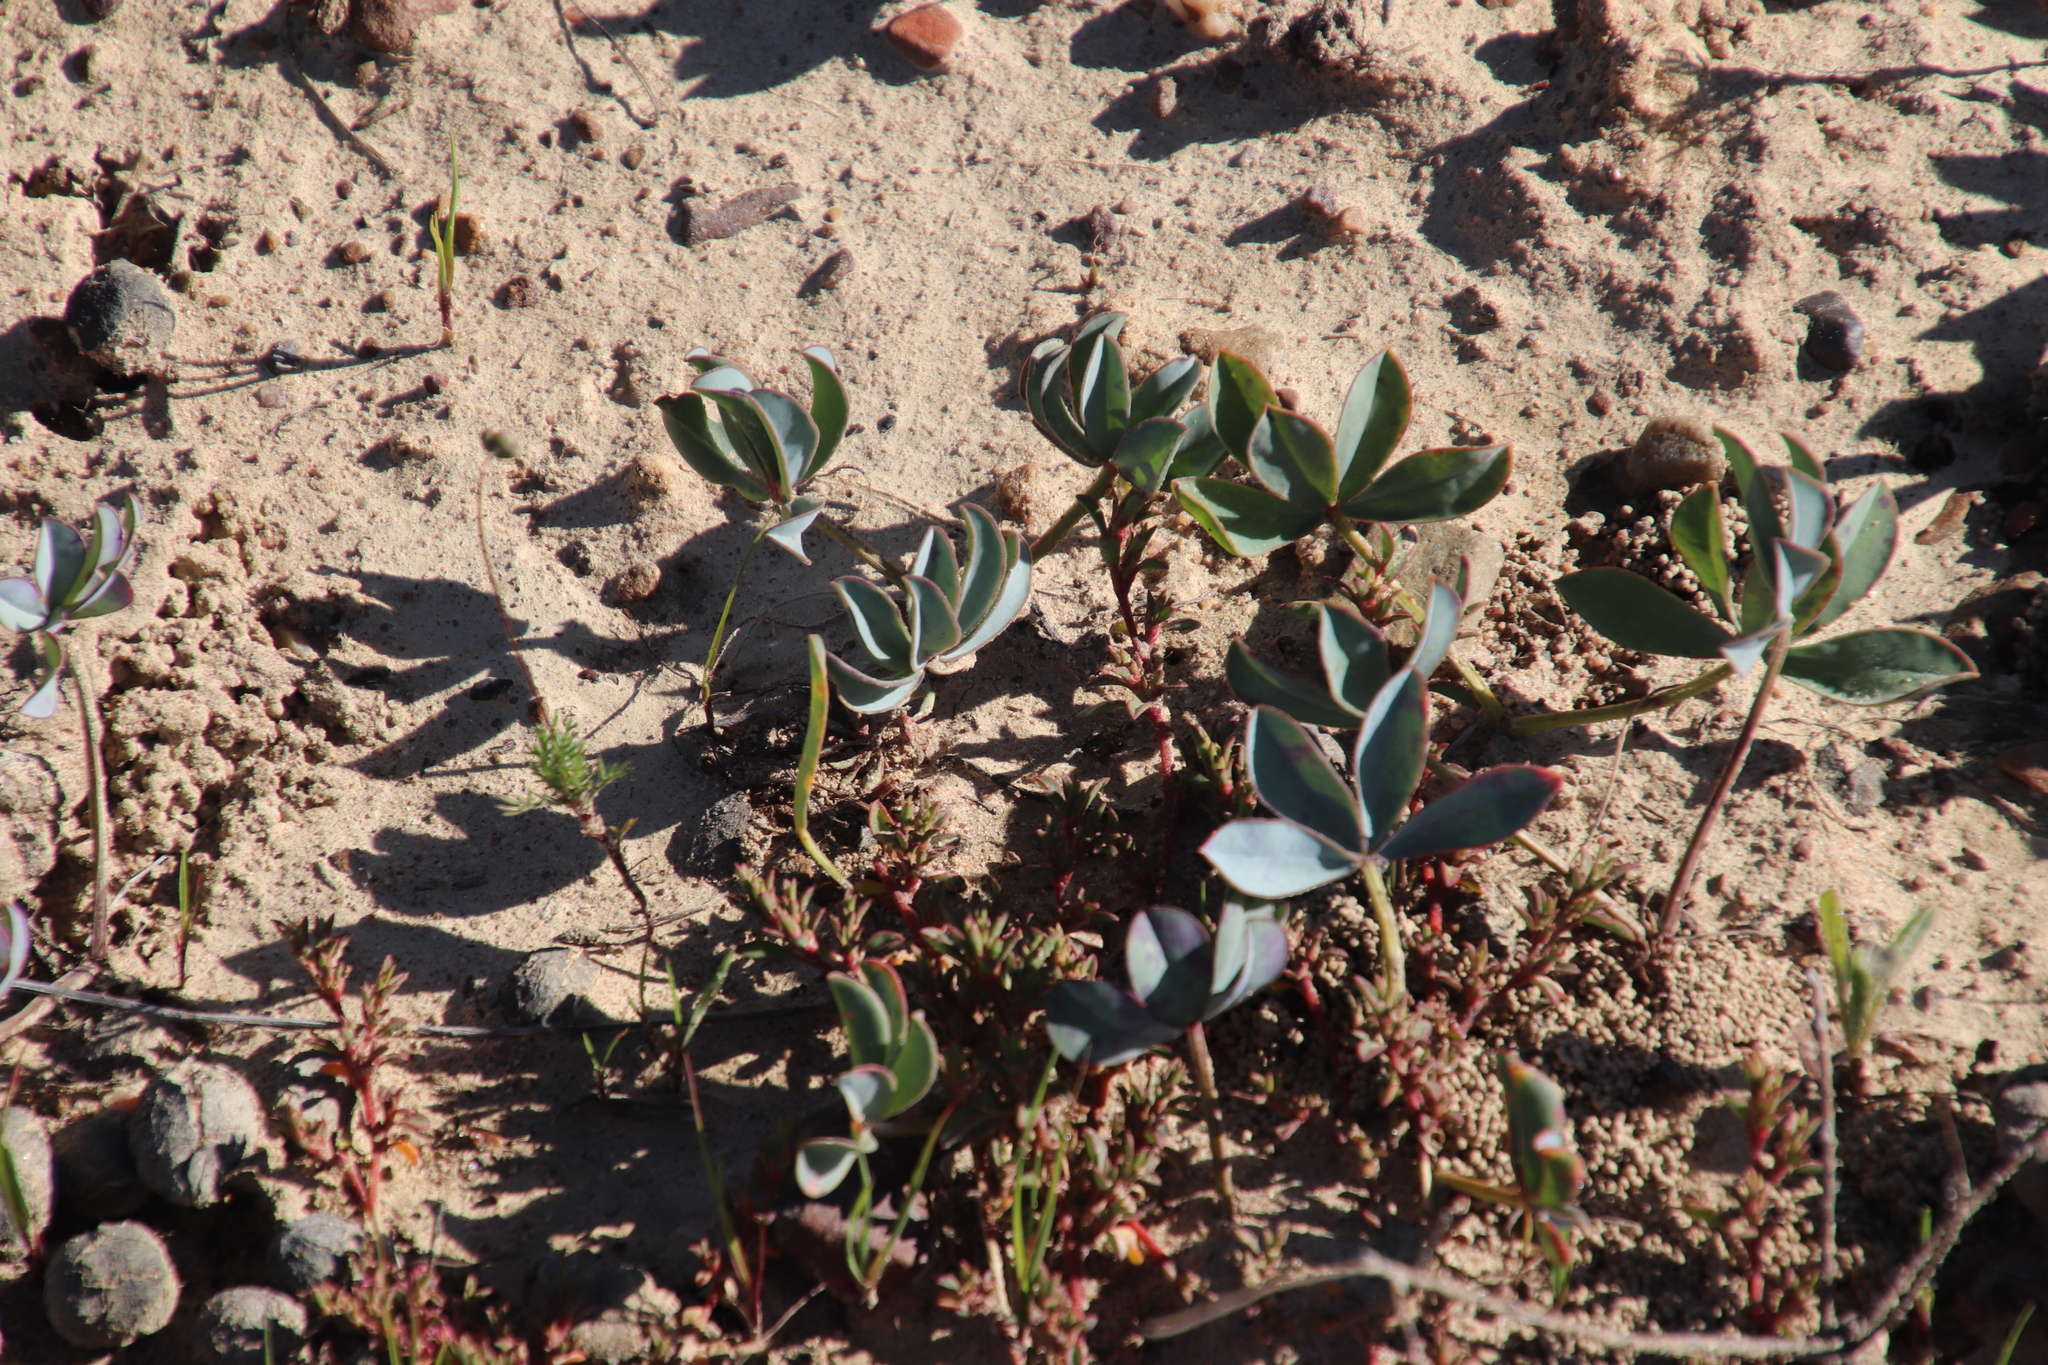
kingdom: Plantae
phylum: Tracheophyta
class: Magnoliopsida
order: Oxalidales
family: Oxalidaceae
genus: Oxalis
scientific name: Oxalis flava
